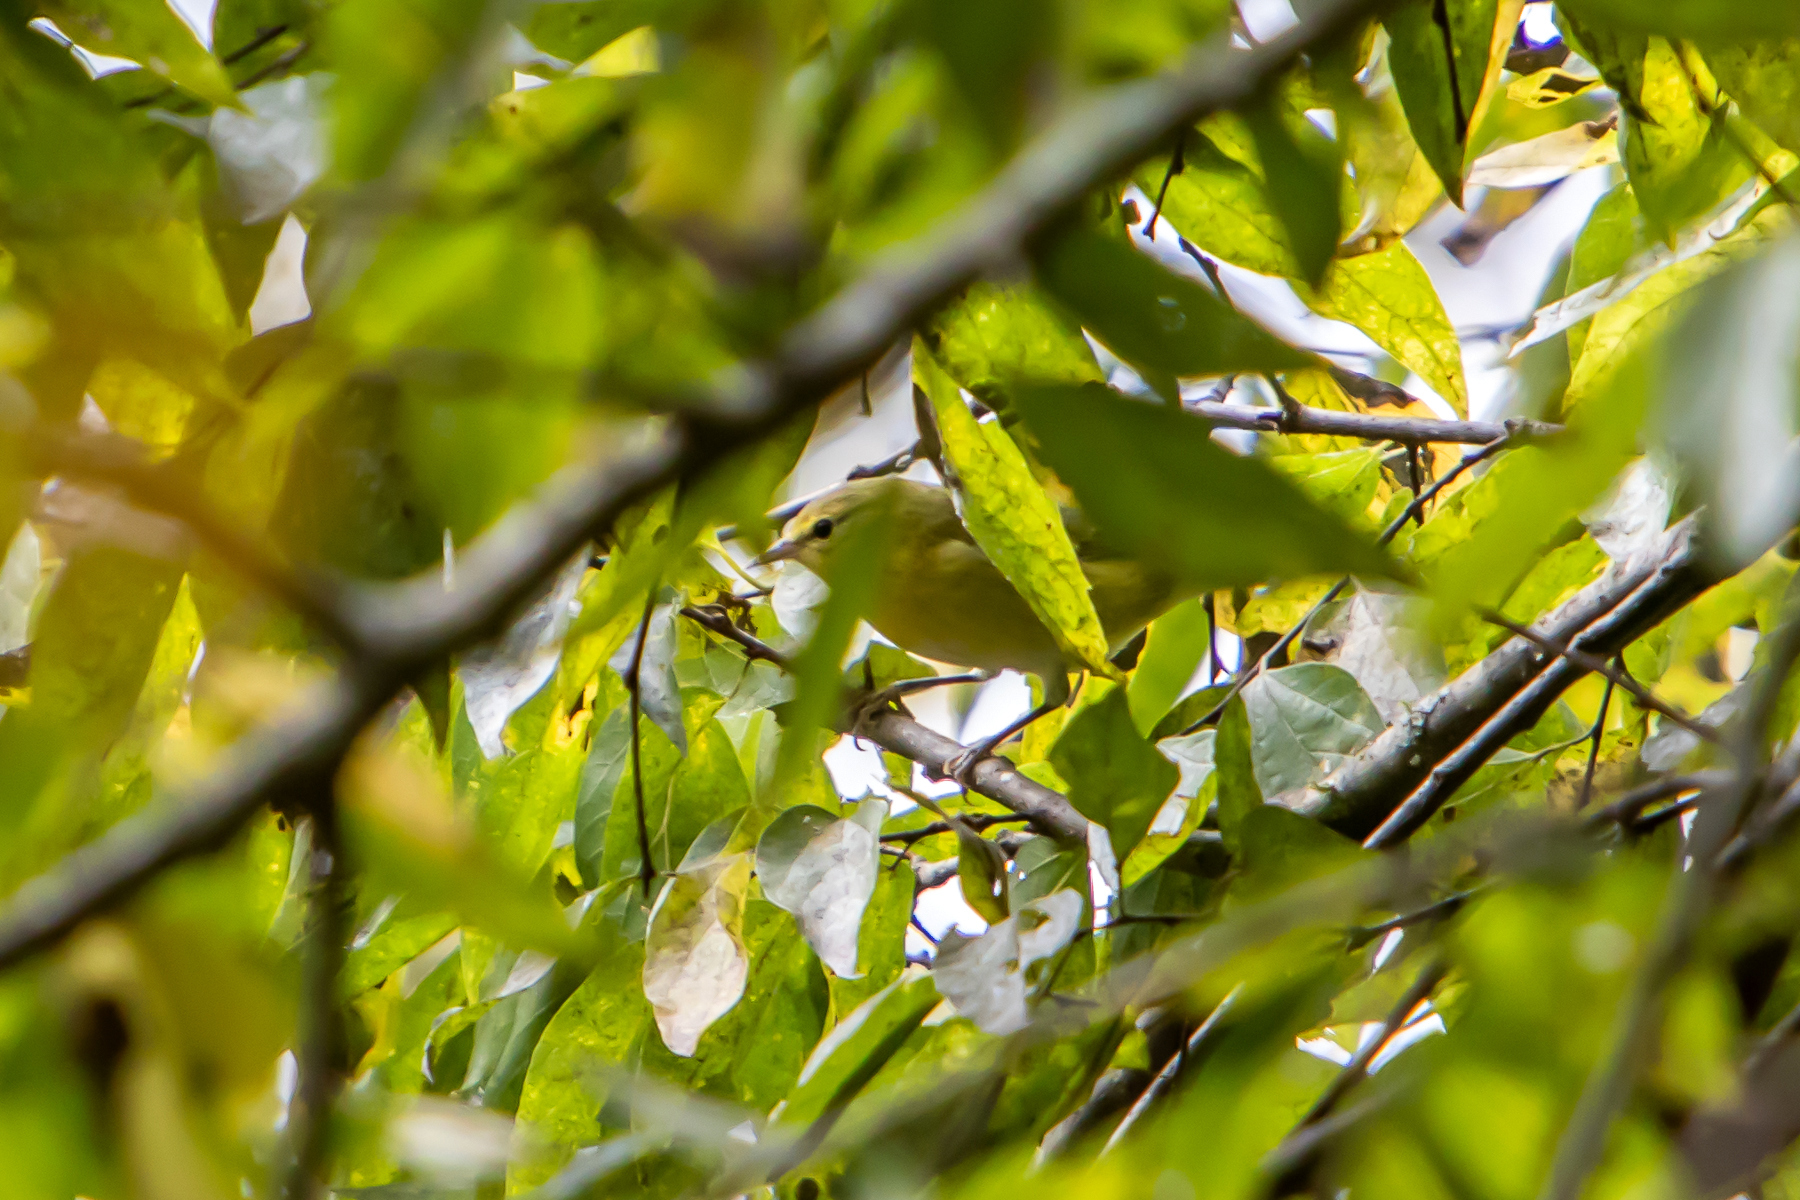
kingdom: Animalia
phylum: Chordata
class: Aves
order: Passeriformes
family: Parulidae
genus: Leiothlypis
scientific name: Leiothlypis peregrina
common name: Tennessee warbler
